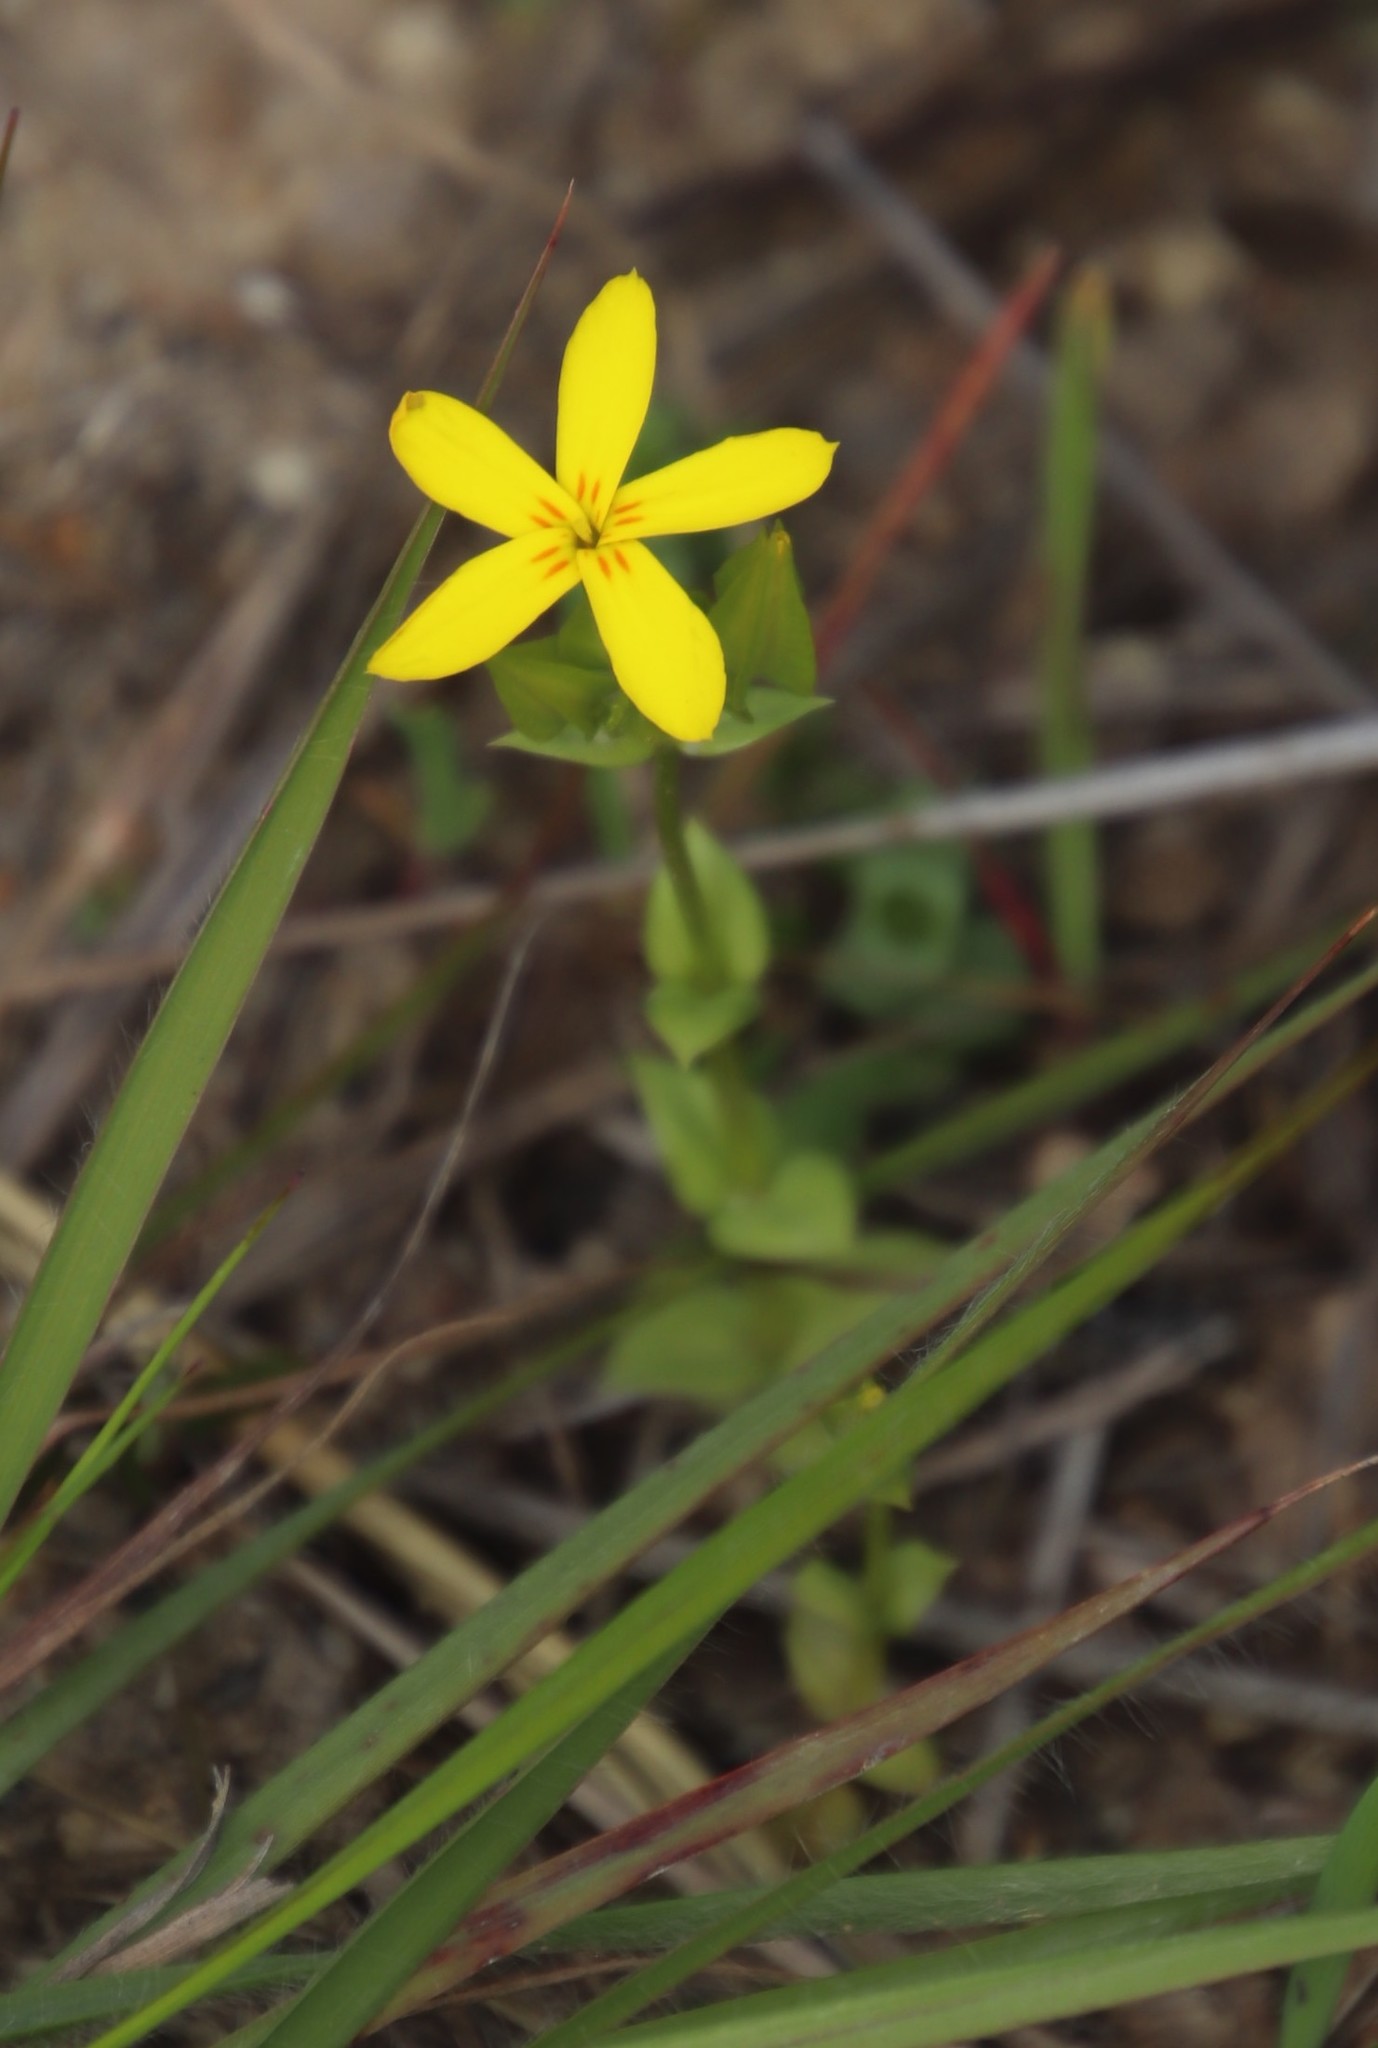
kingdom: Plantae
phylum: Tracheophyta
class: Magnoliopsida
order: Gentianales
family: Gentianaceae
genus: Sebaea
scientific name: Sebaea exacoides
